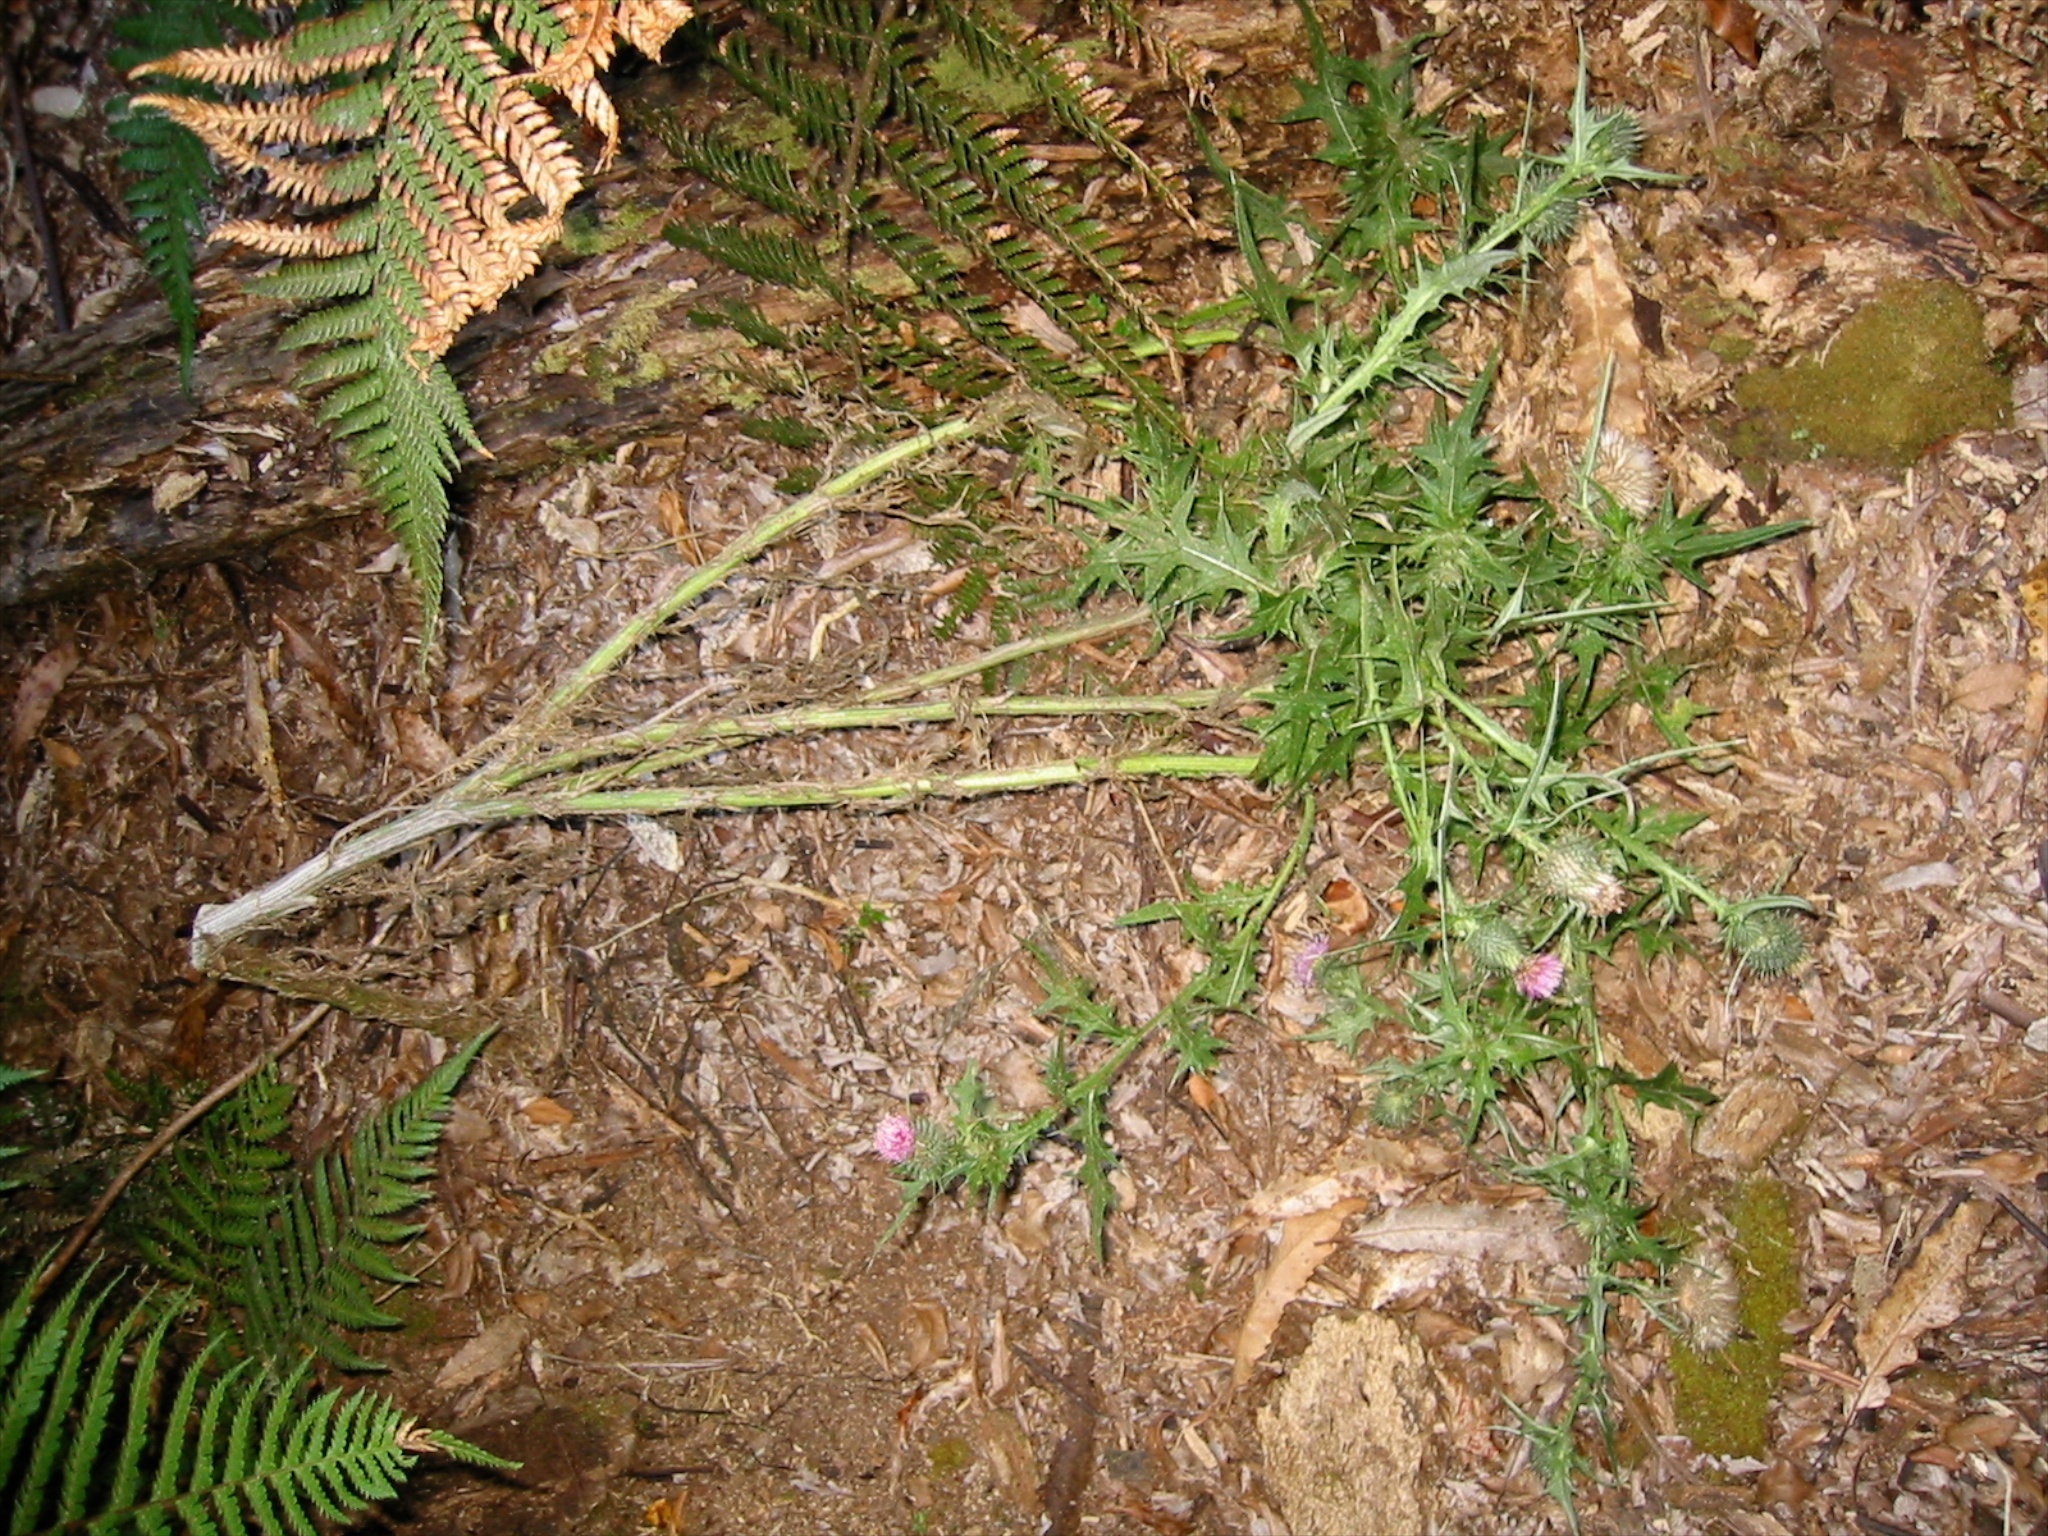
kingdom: Plantae
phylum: Tracheophyta
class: Magnoliopsida
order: Asterales
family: Asteraceae
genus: Cirsium
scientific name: Cirsium vulgare
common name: Bull thistle
